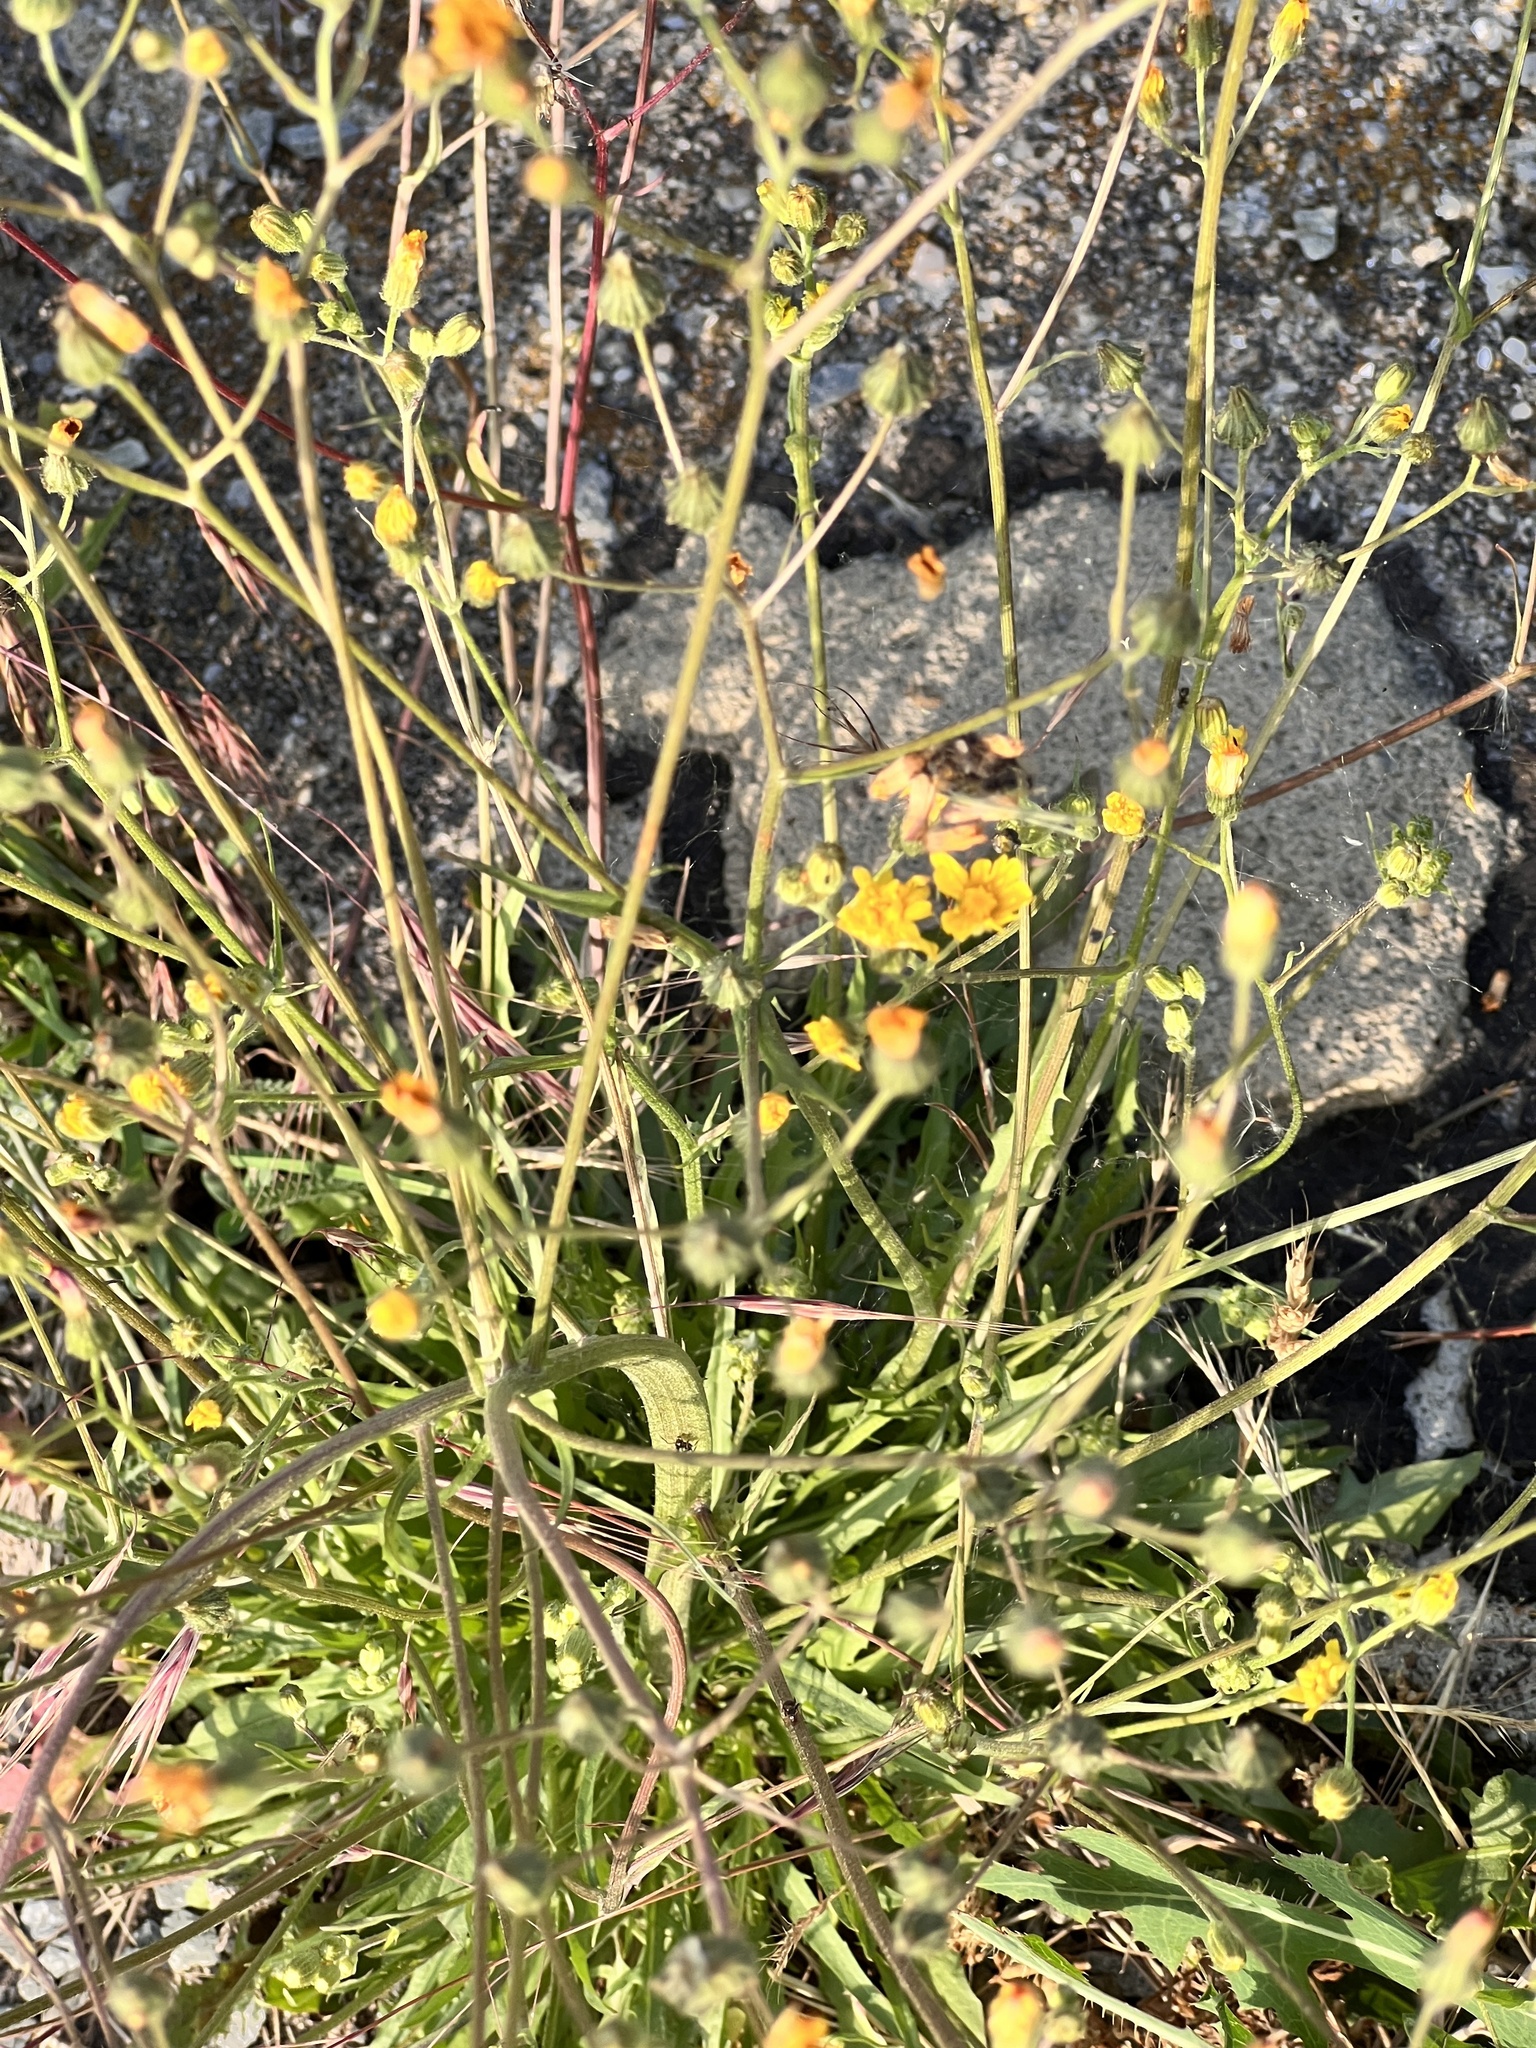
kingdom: Plantae
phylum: Tracheophyta
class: Magnoliopsida
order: Asterales
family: Asteraceae
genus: Crepis
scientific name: Crepis capillaris
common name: Smooth hawksbeard
